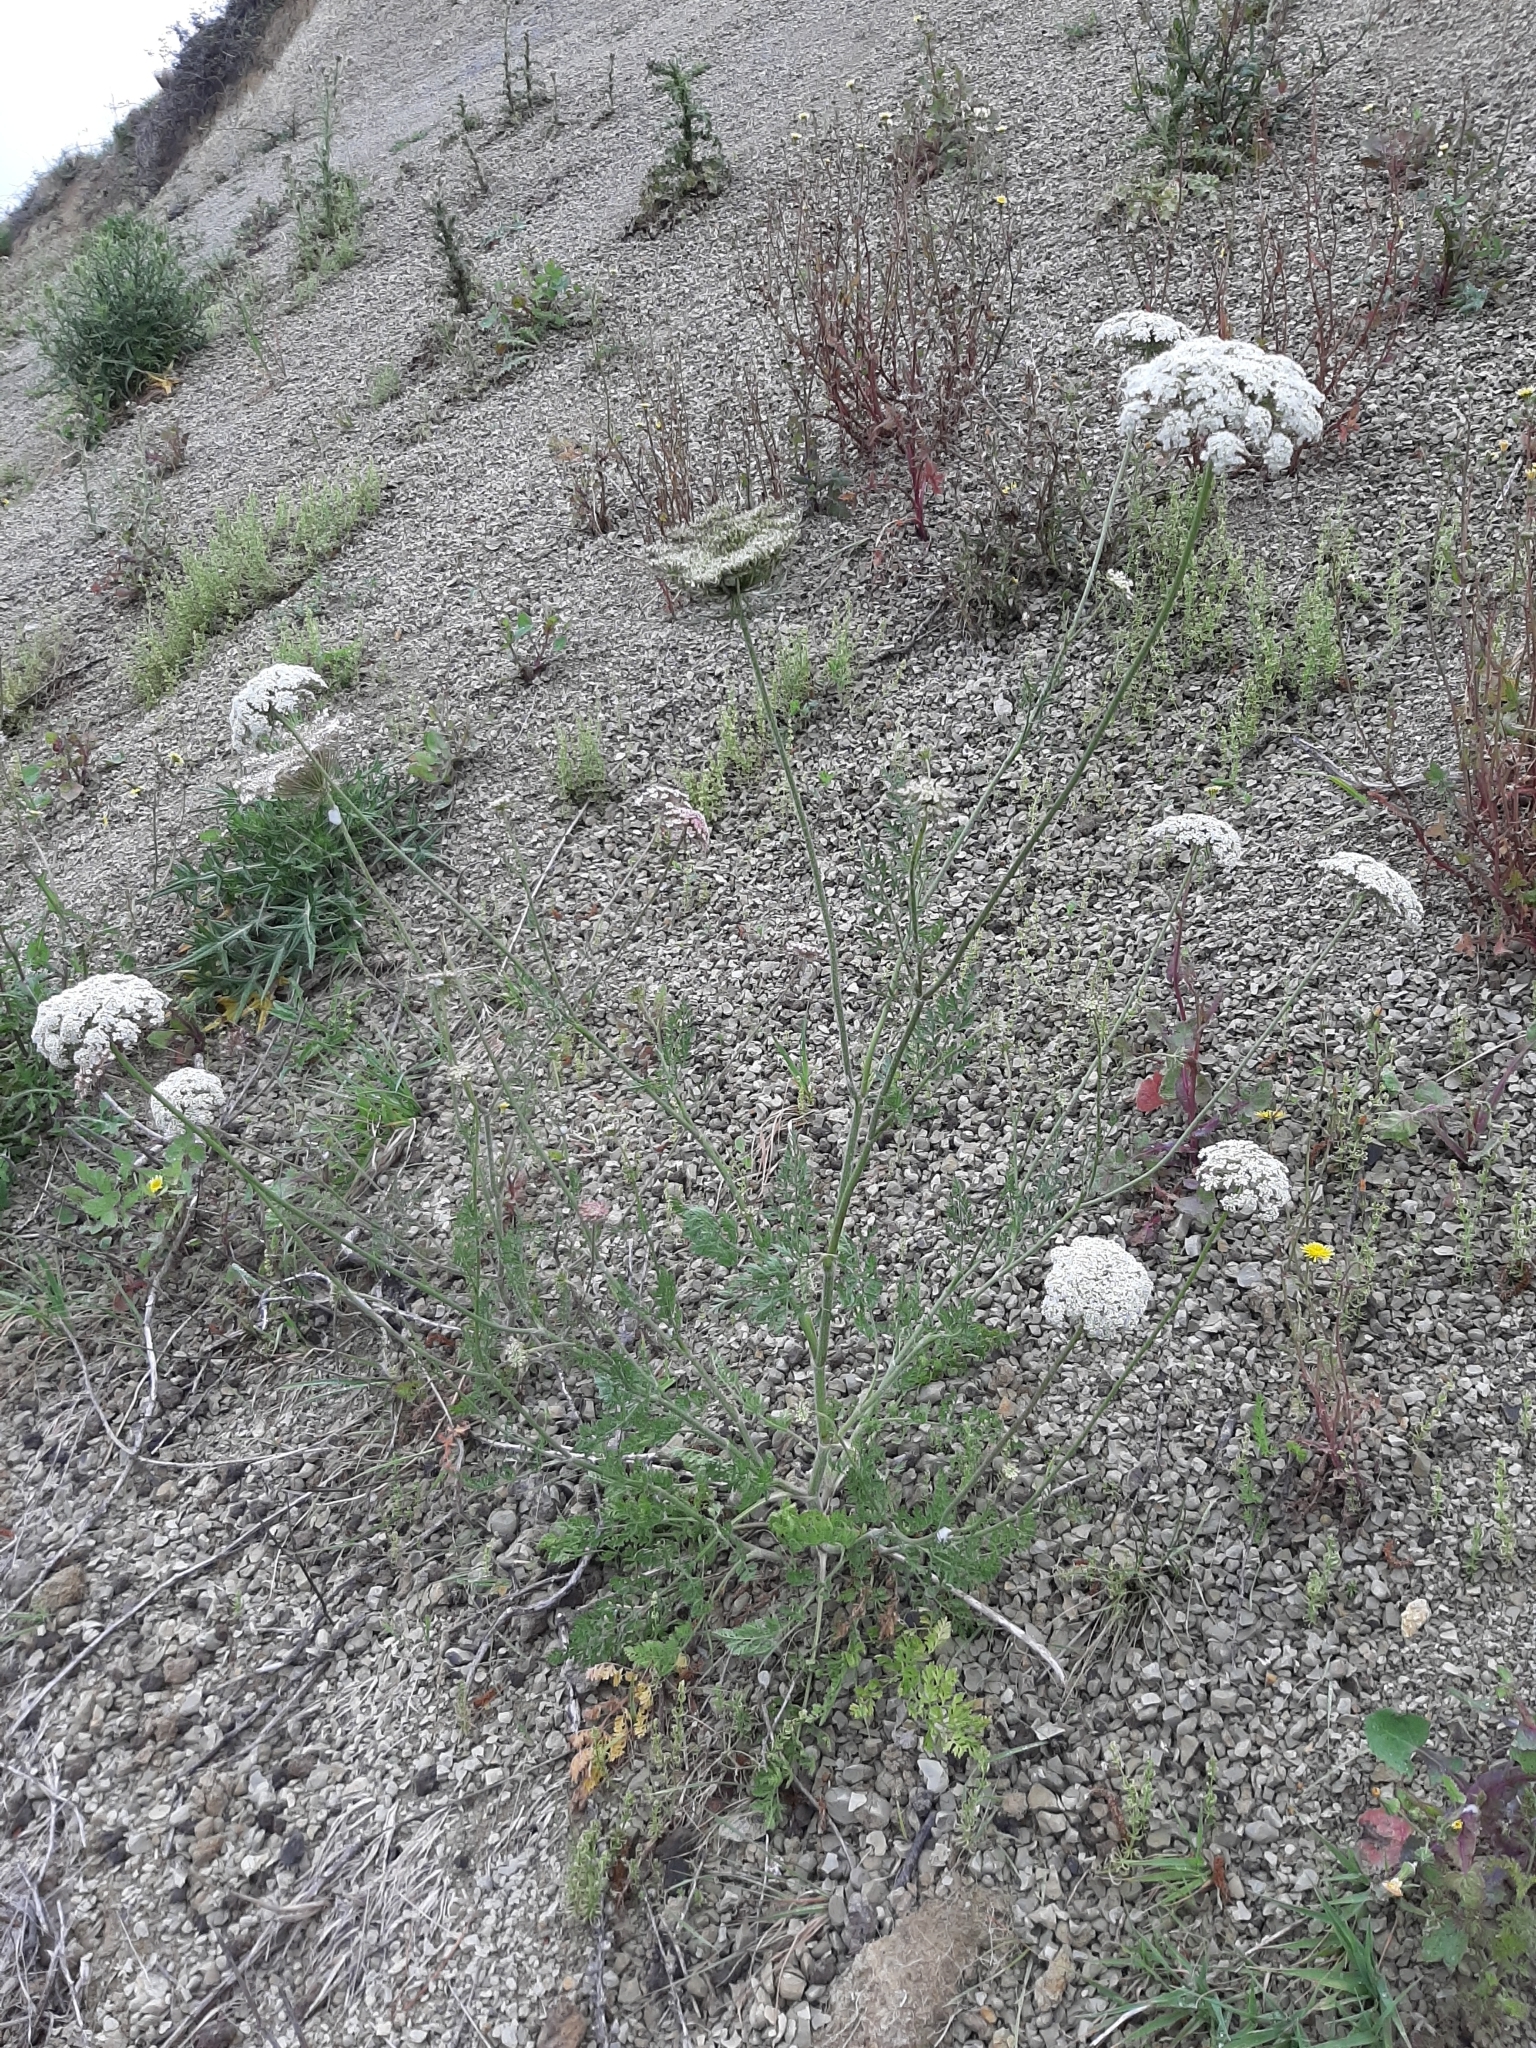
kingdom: Plantae
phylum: Tracheophyta
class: Magnoliopsida
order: Apiales
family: Apiaceae
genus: Daucus
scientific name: Daucus carota
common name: Wild carrot
